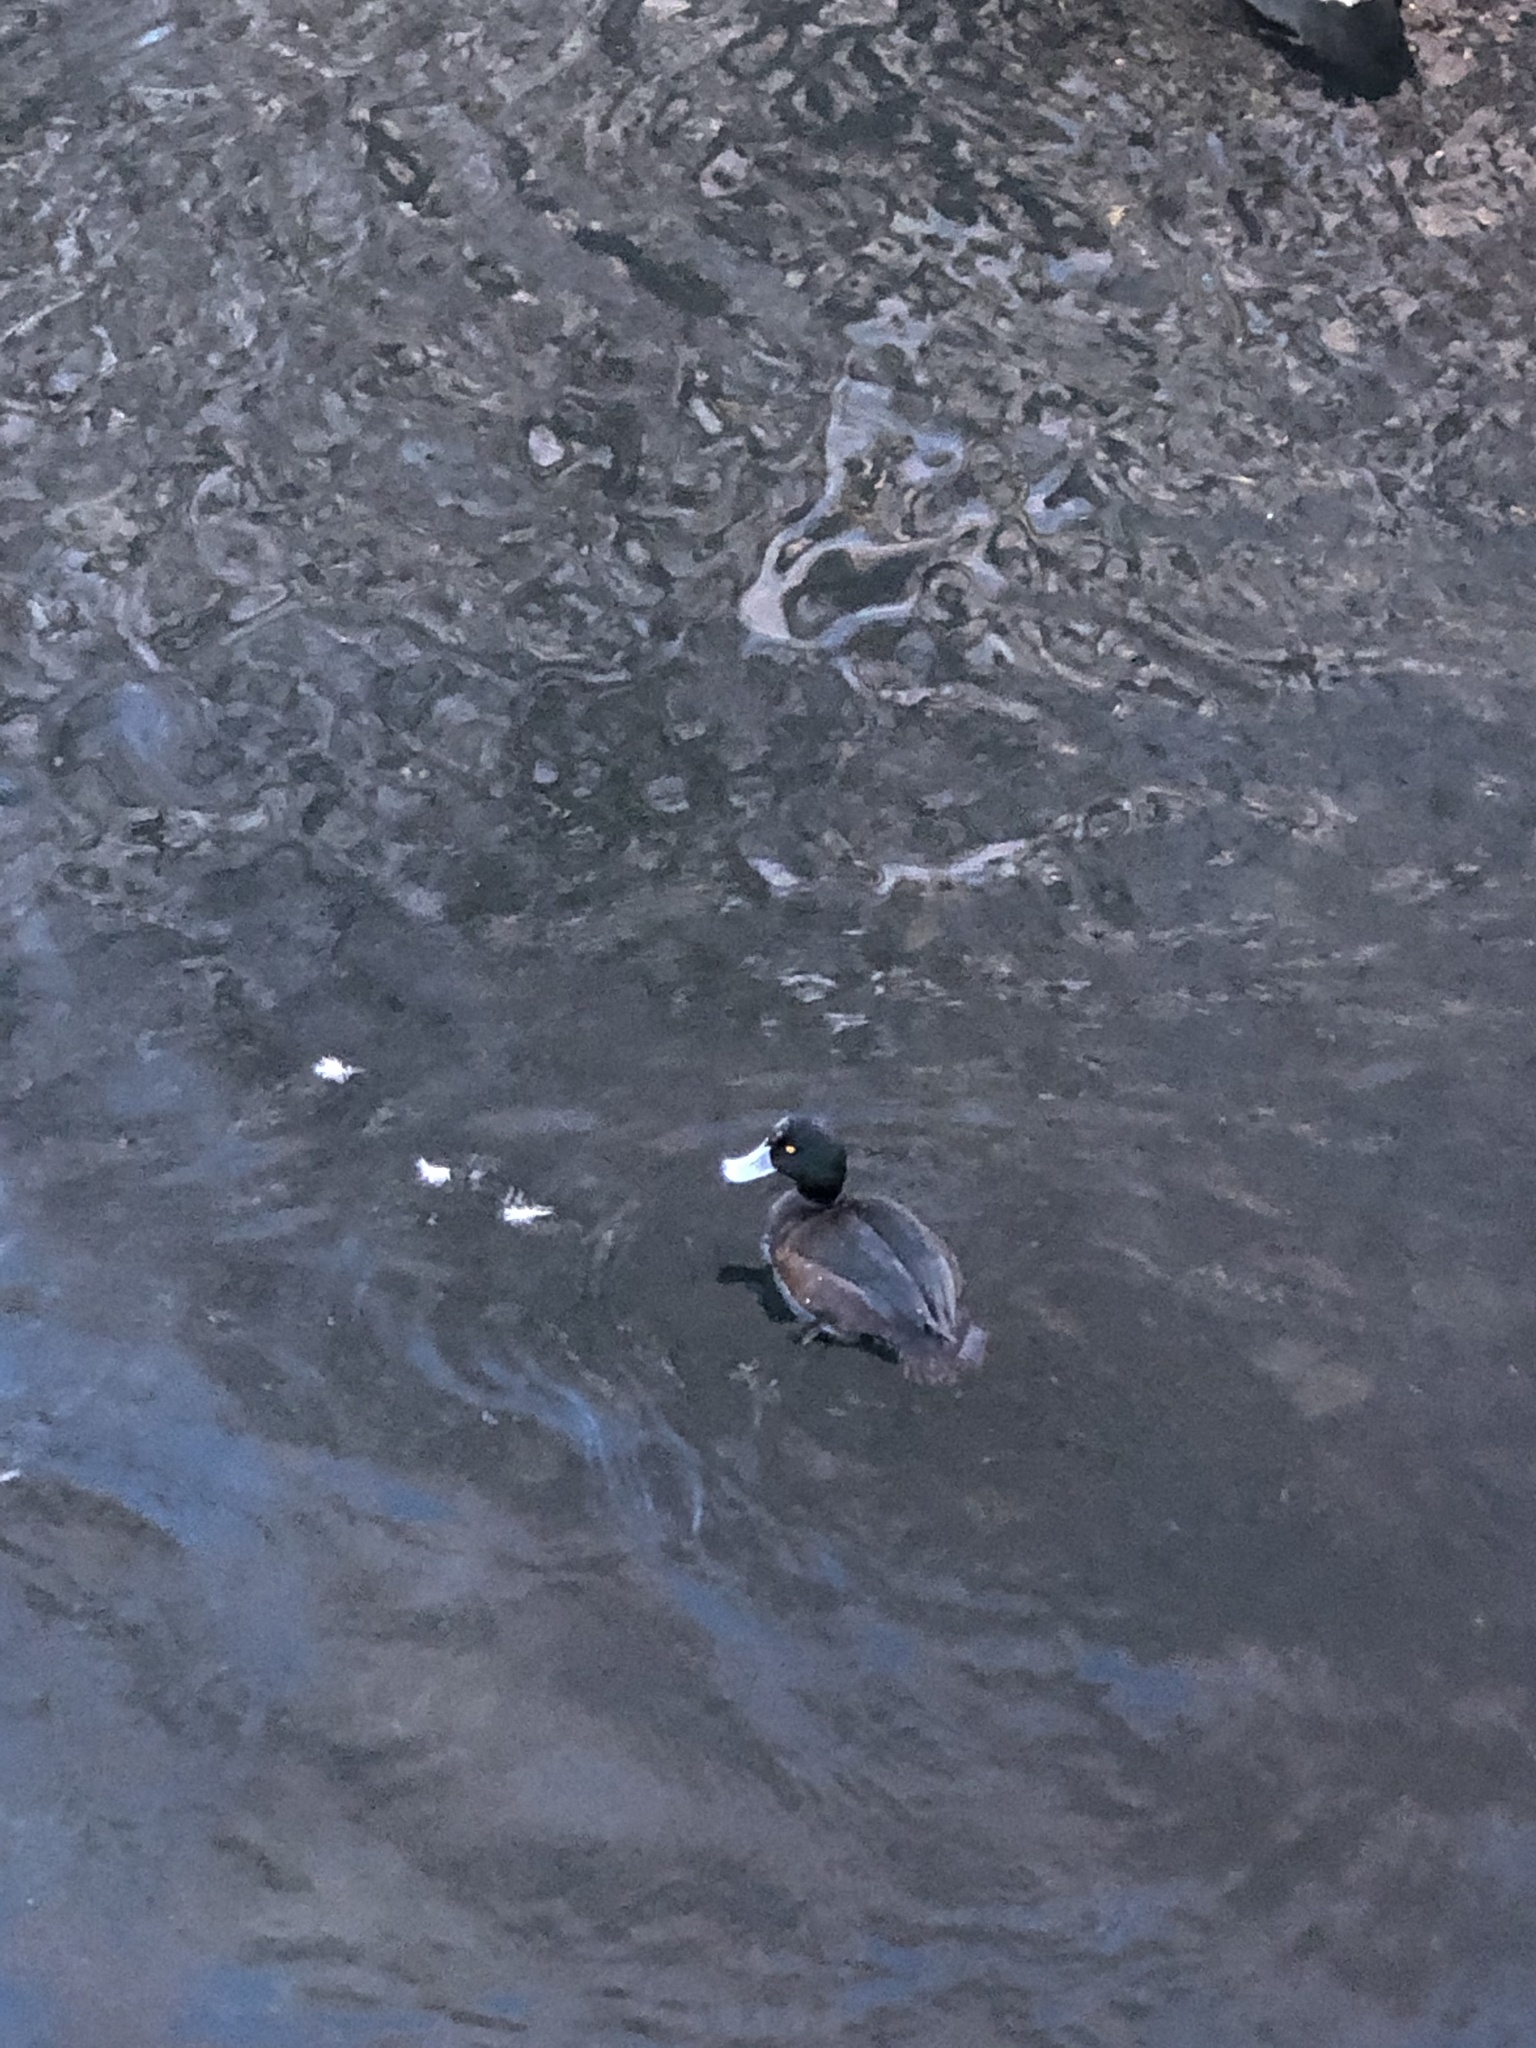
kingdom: Animalia
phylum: Chordata
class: Aves
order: Anseriformes
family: Anatidae
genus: Aythya
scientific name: Aythya novaeseelandiae
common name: New zealand scaup
